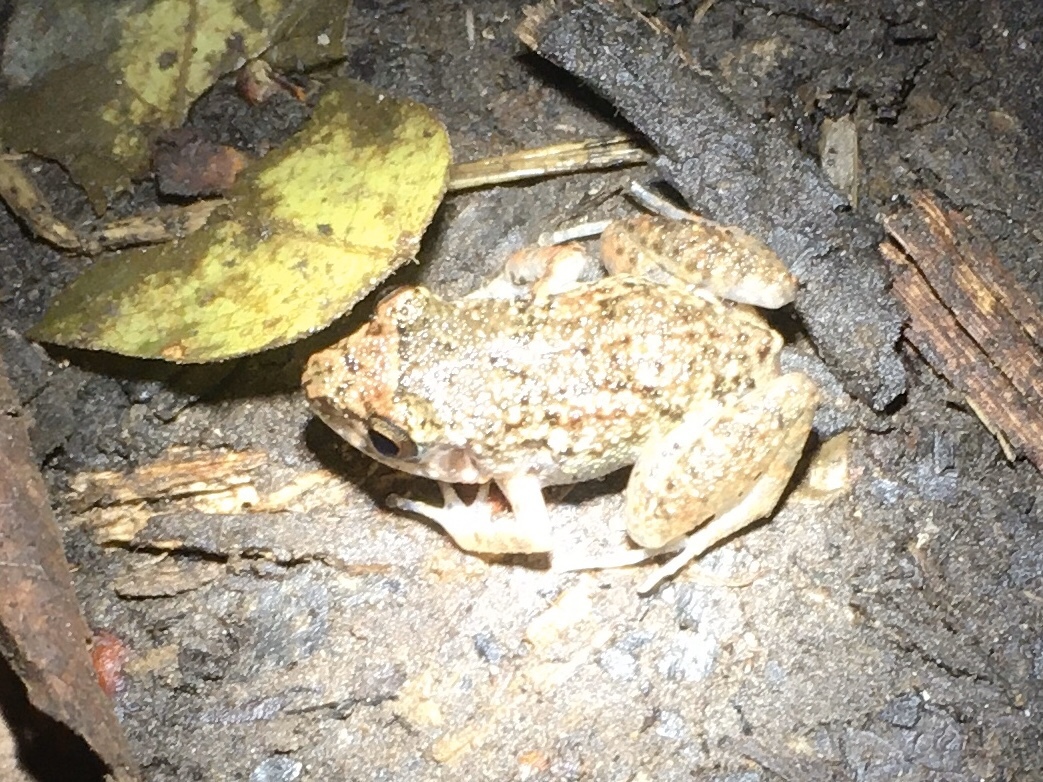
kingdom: Animalia
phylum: Chordata
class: Amphibia
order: Anura
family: Eleutherodactylidae
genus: Eleutherodactylus
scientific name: Eleutherodactylus planirostris
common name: Greenhouse frog
